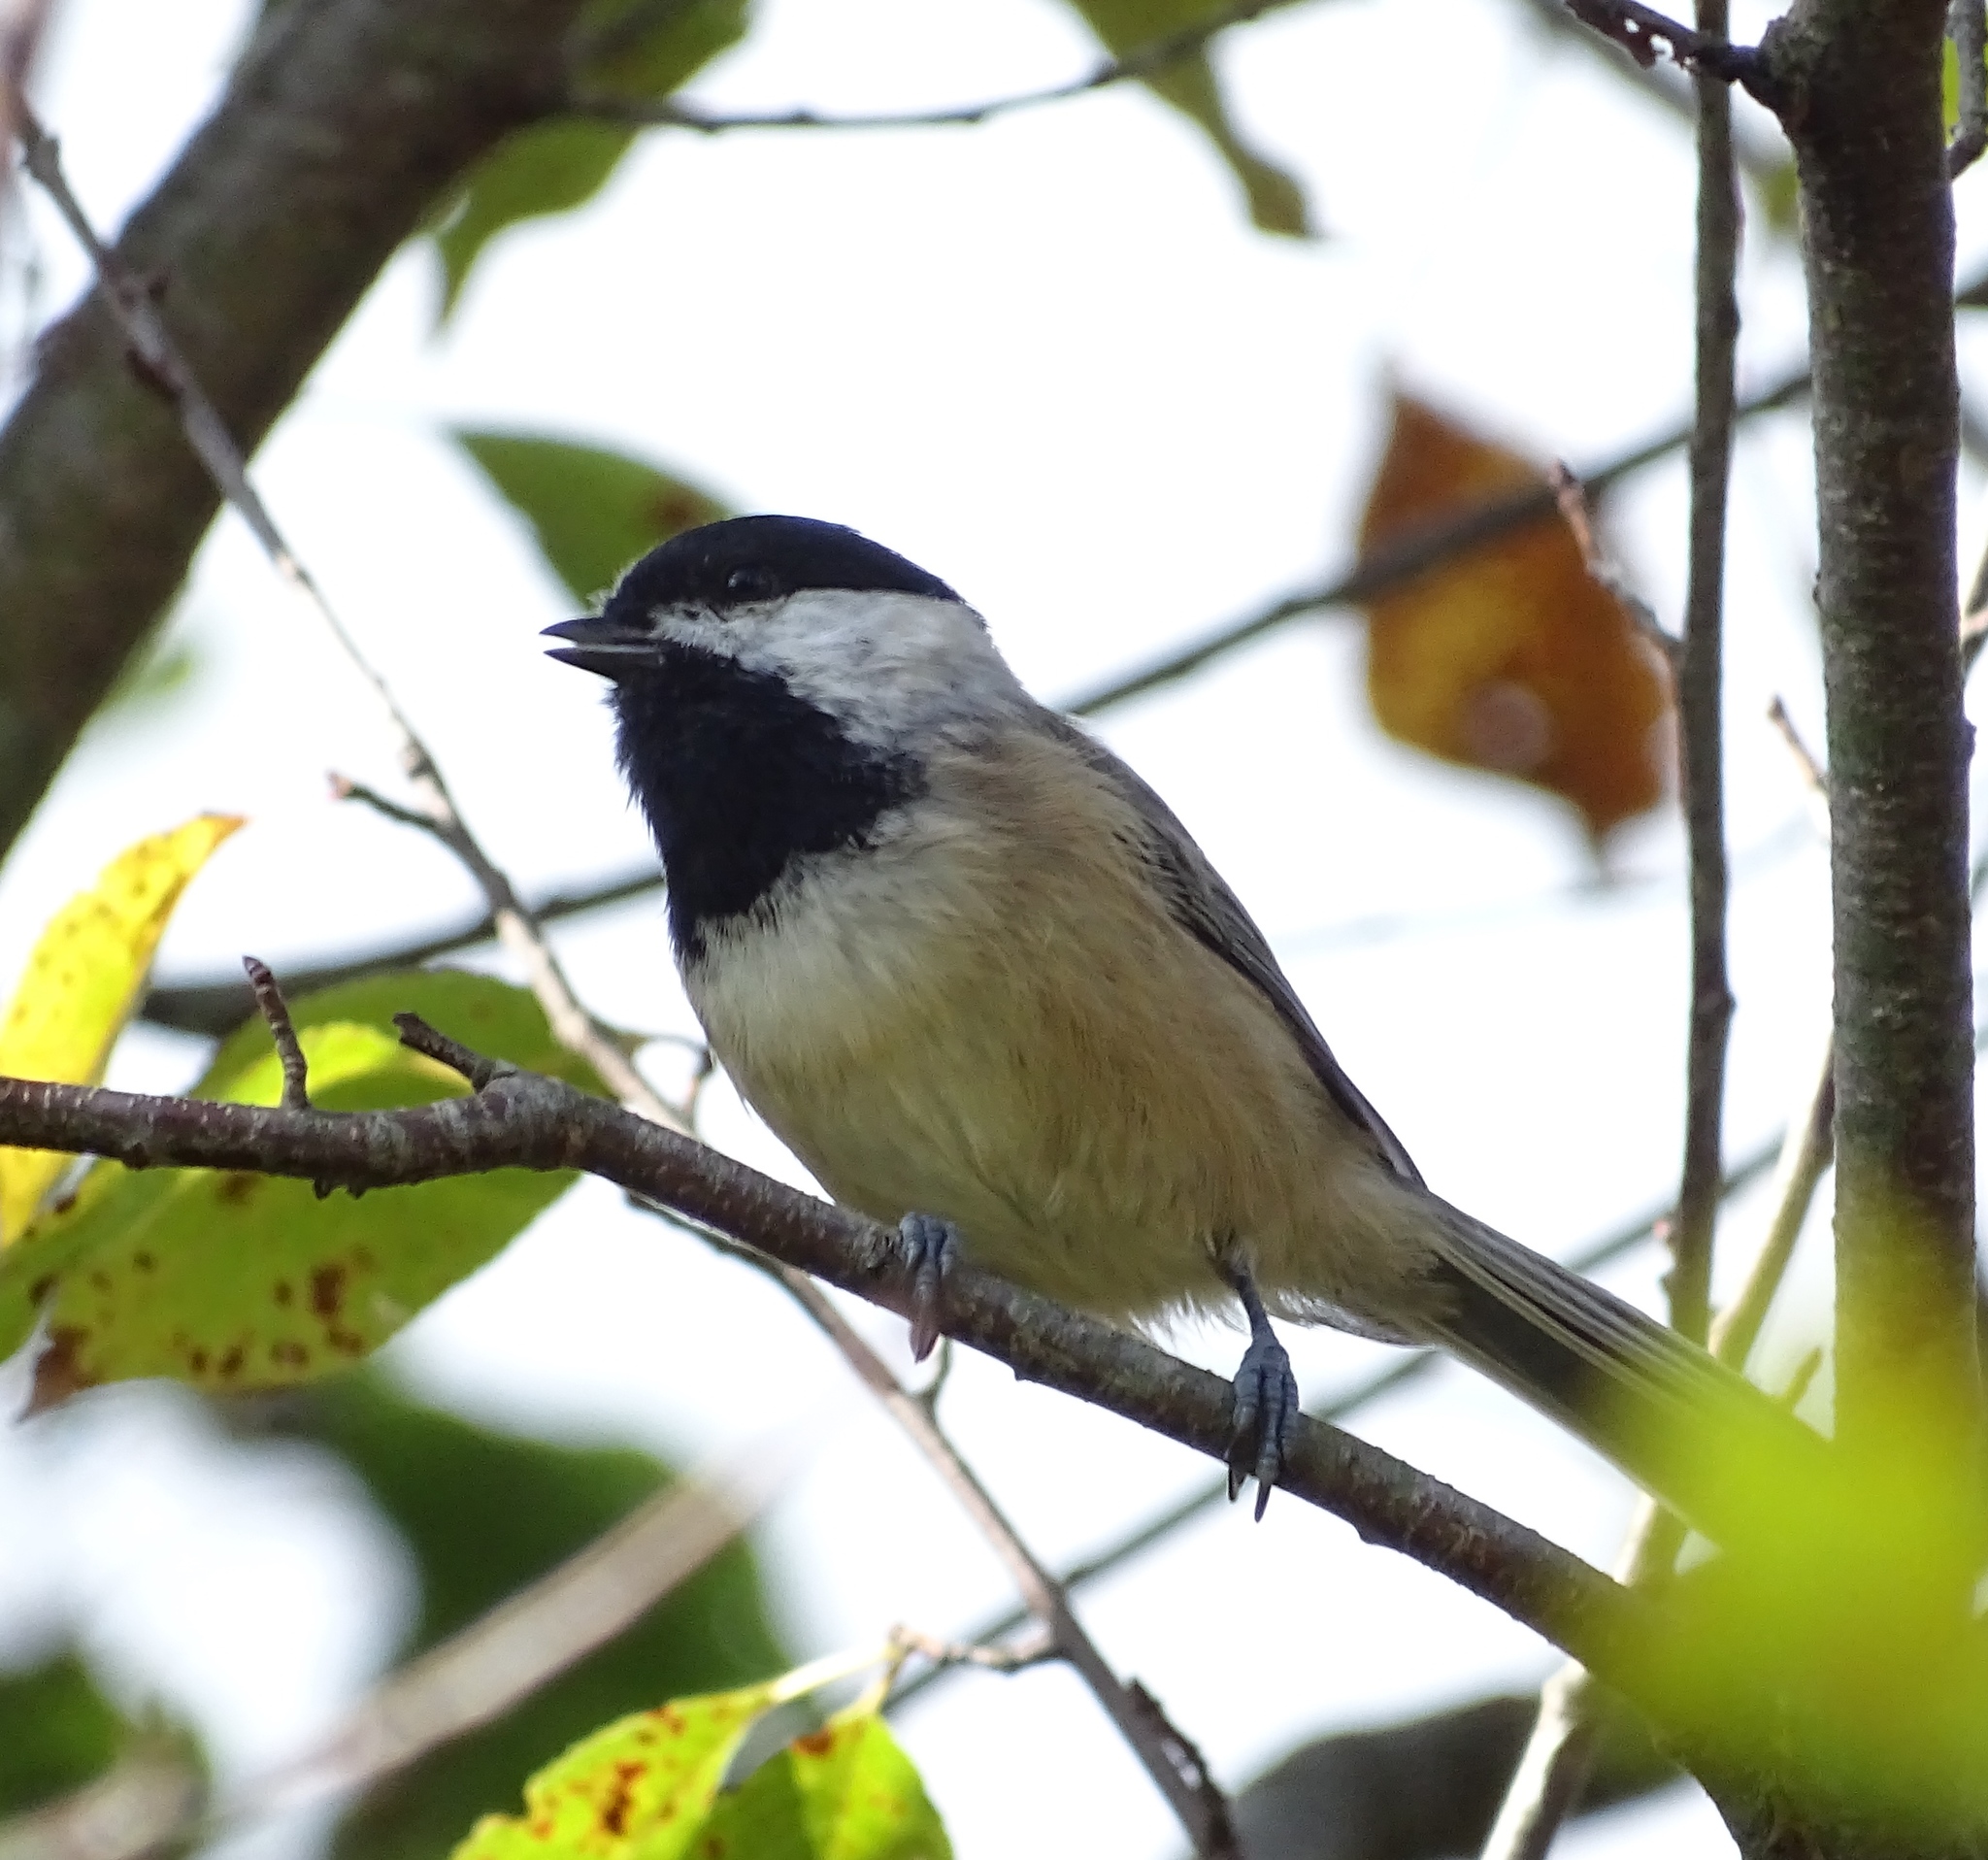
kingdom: Animalia
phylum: Chordata
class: Aves
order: Passeriformes
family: Paridae
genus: Poecile
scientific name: Poecile carolinensis
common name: Carolina chickadee
